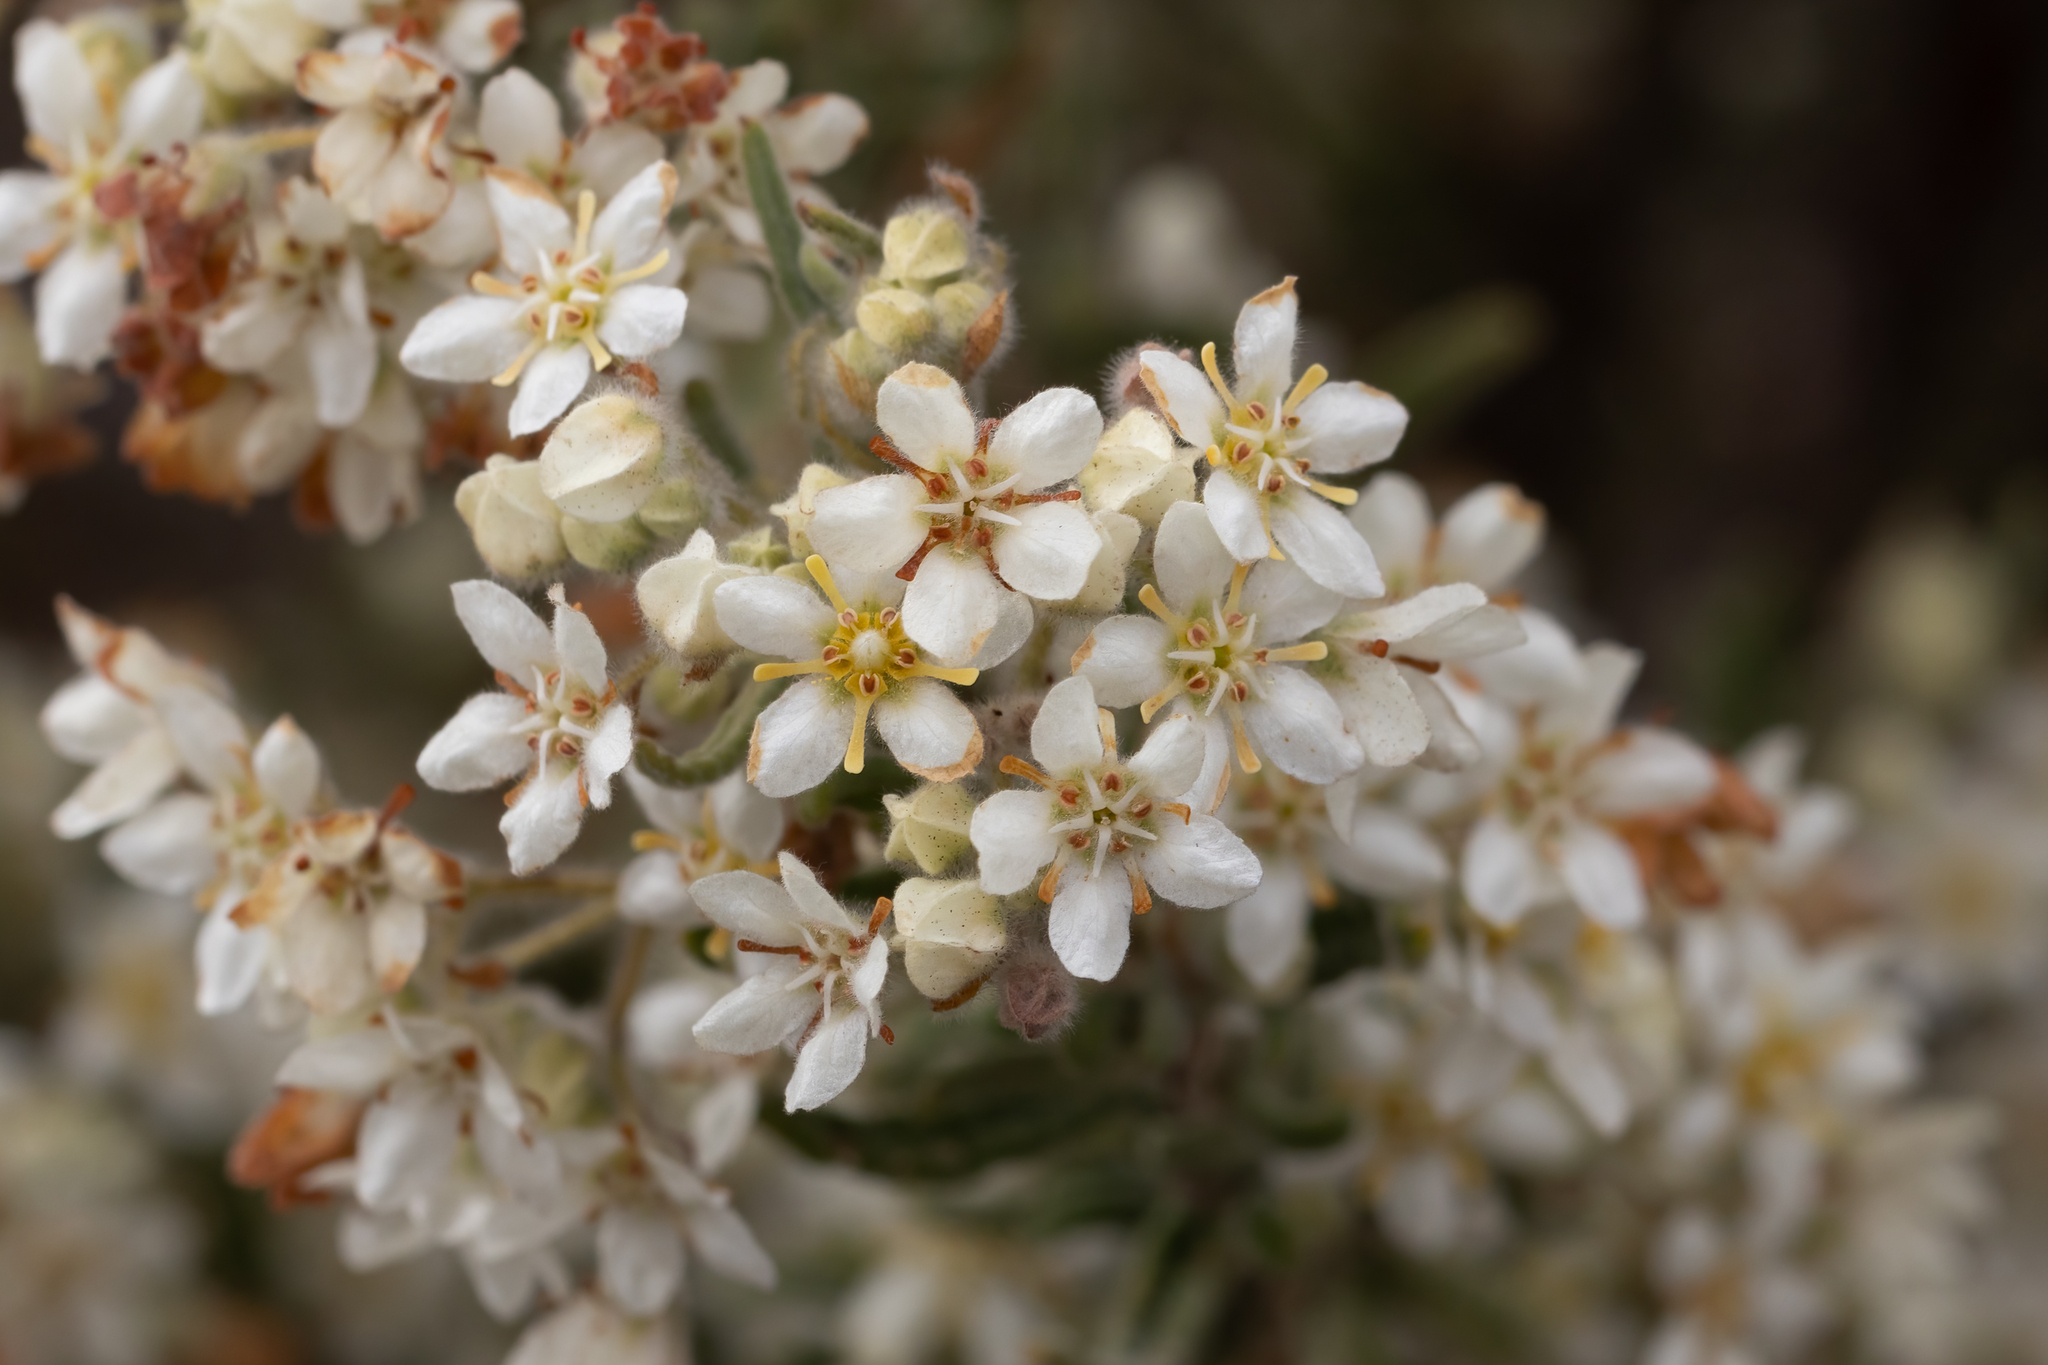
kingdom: Plantae
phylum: Tracheophyta
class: Magnoliopsida
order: Malvales
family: Malvaceae
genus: Commersonia
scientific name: Commersonia craurophylla
